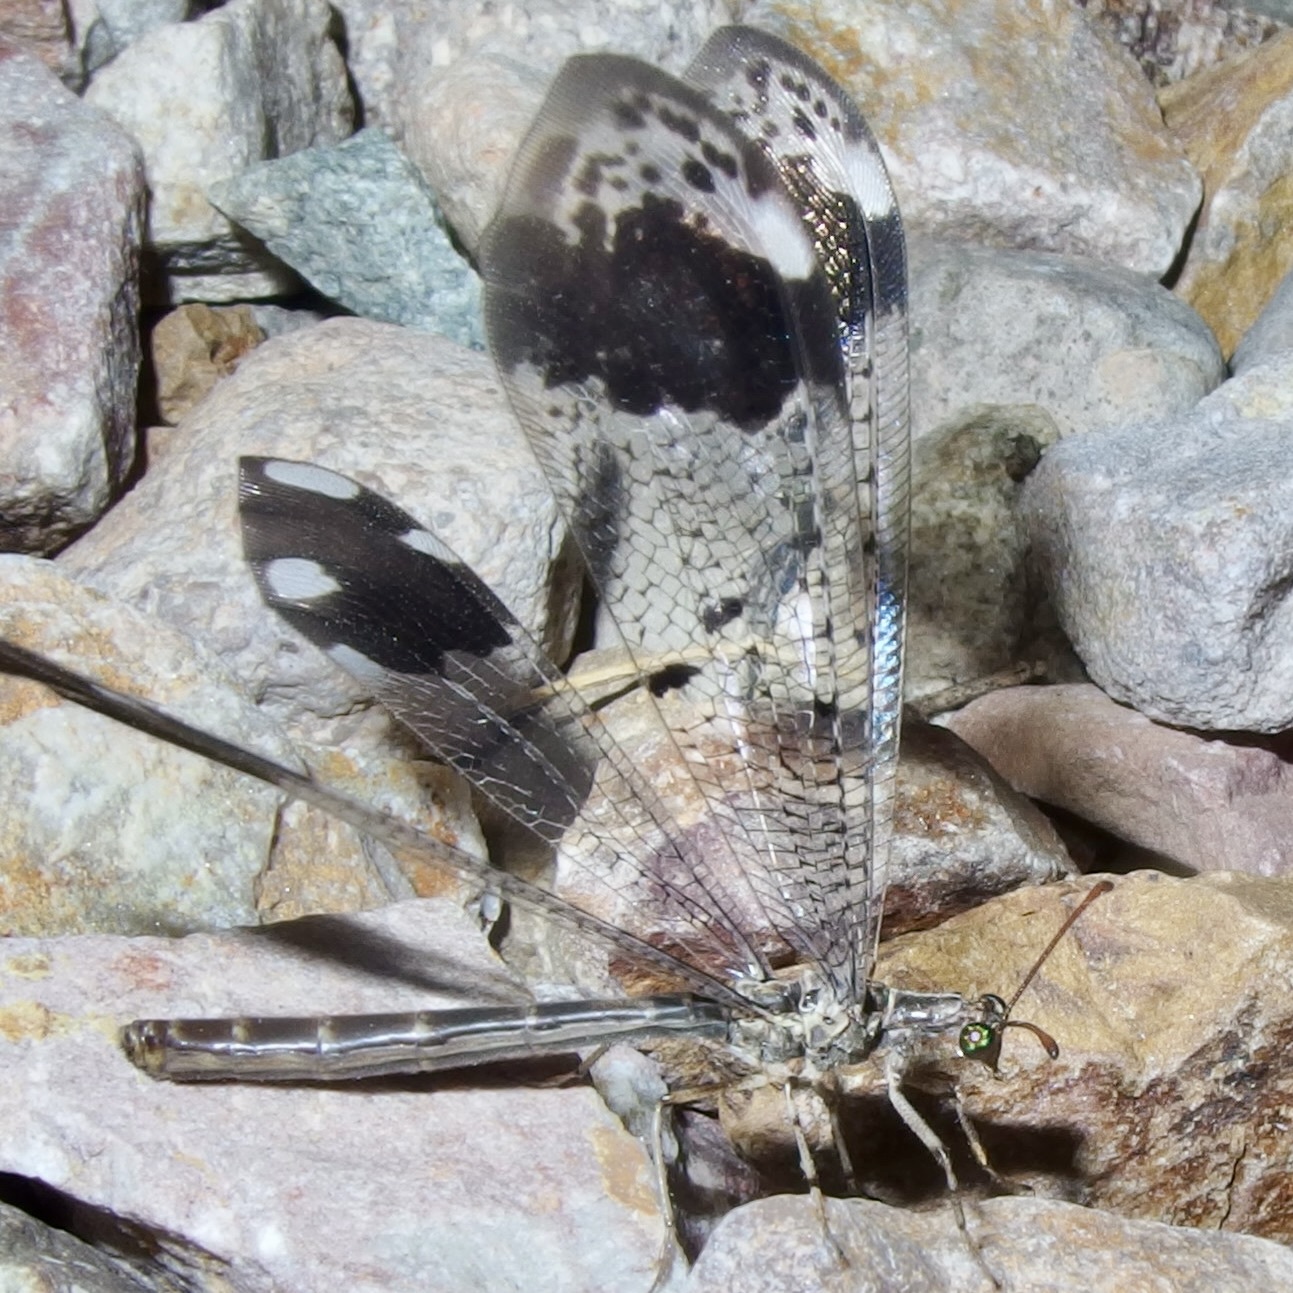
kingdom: Animalia
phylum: Arthropoda
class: Insecta
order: Neuroptera
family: Myrmeleontidae
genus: Glenurus
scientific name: Glenurus luniger
